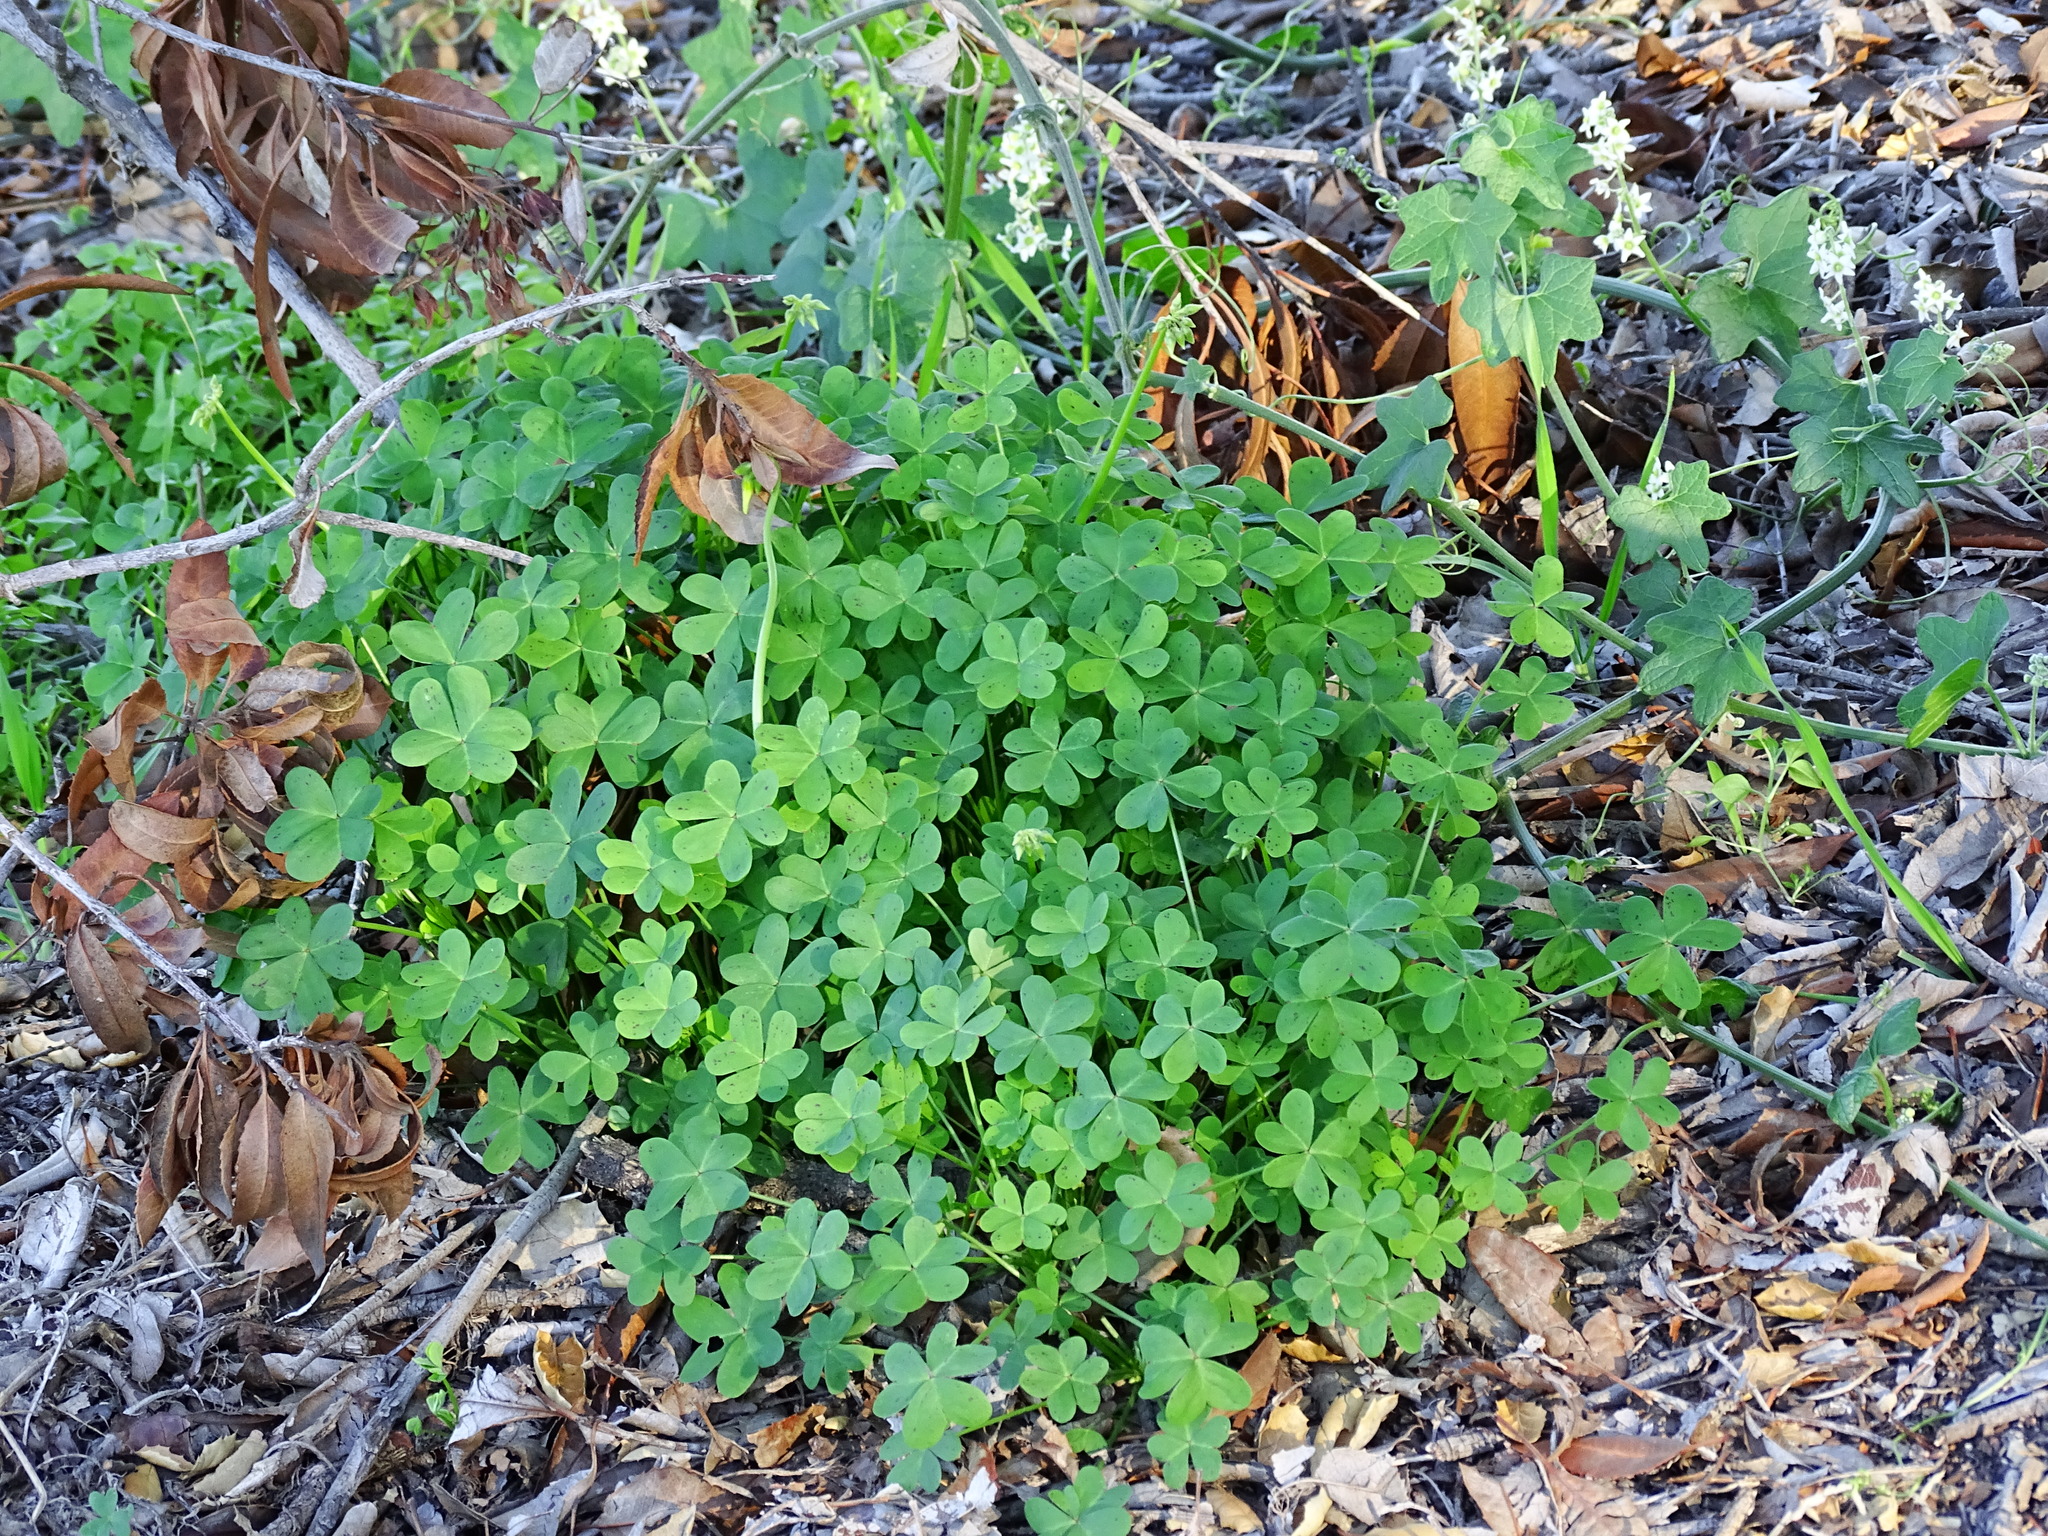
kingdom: Plantae
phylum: Tracheophyta
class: Magnoliopsida
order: Oxalidales
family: Oxalidaceae
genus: Oxalis
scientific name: Oxalis pes-caprae
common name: Bermuda-buttercup
